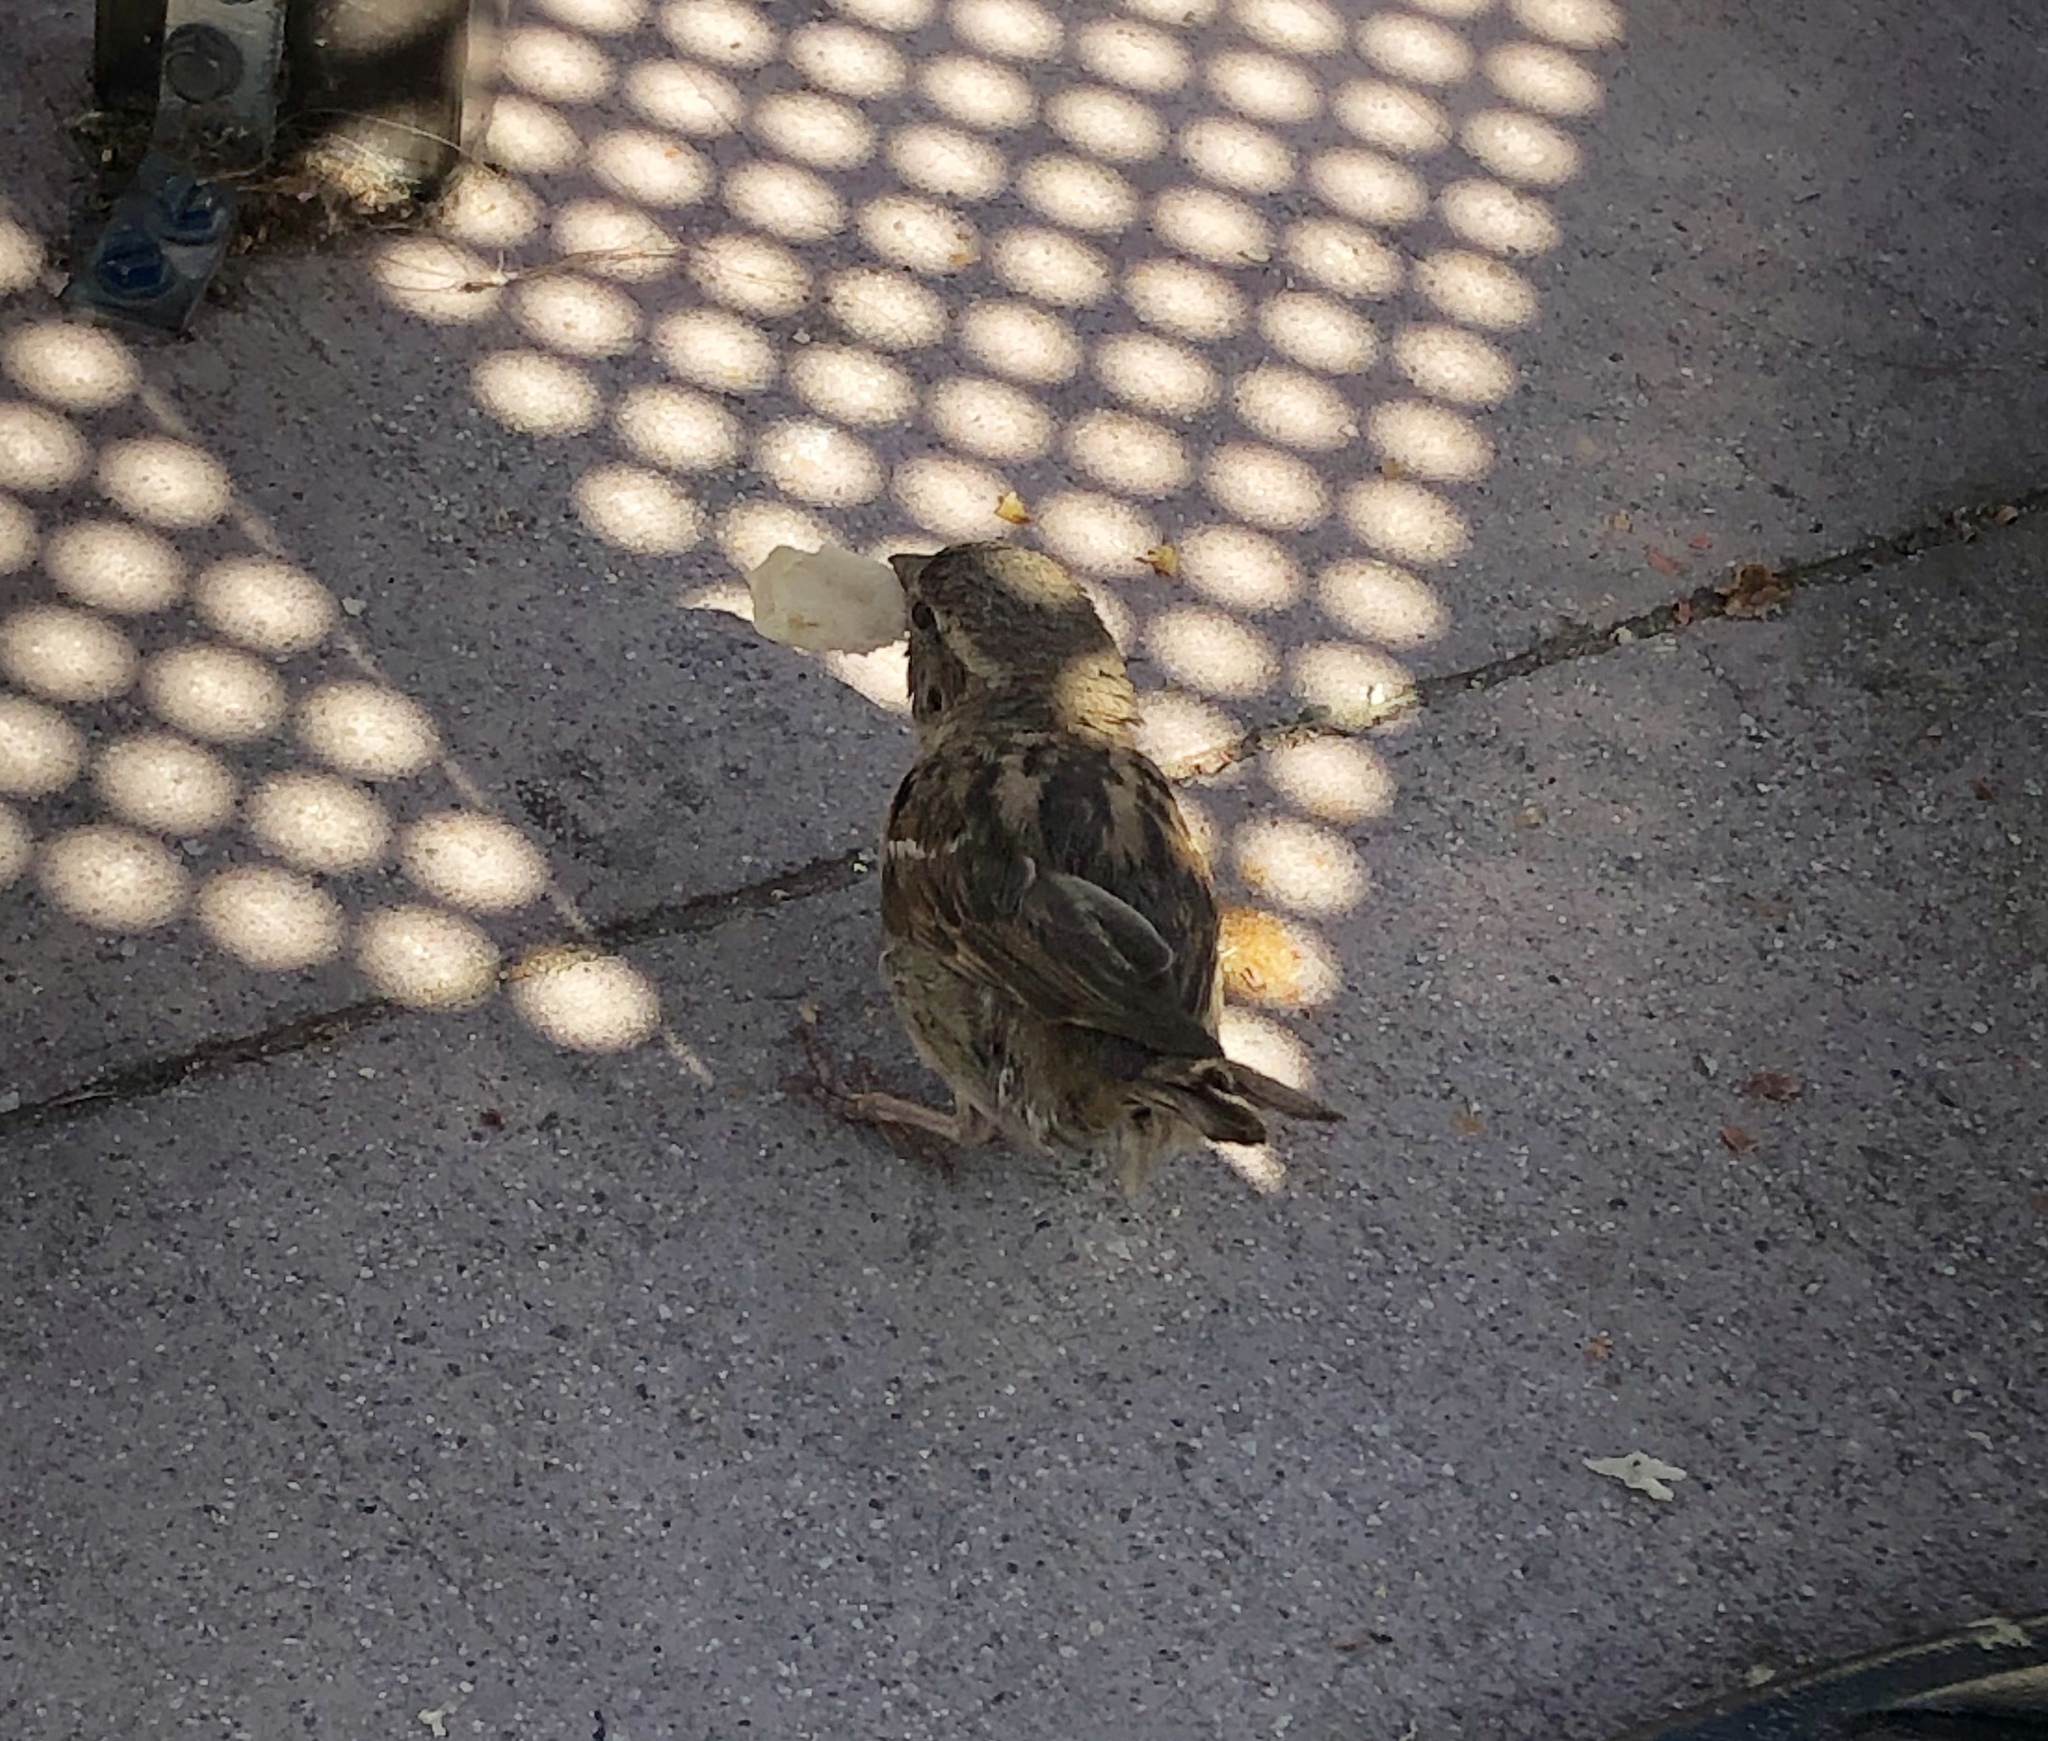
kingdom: Animalia
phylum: Chordata
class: Aves
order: Passeriformes
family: Passeridae
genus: Passer
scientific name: Passer domesticus
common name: House sparrow
